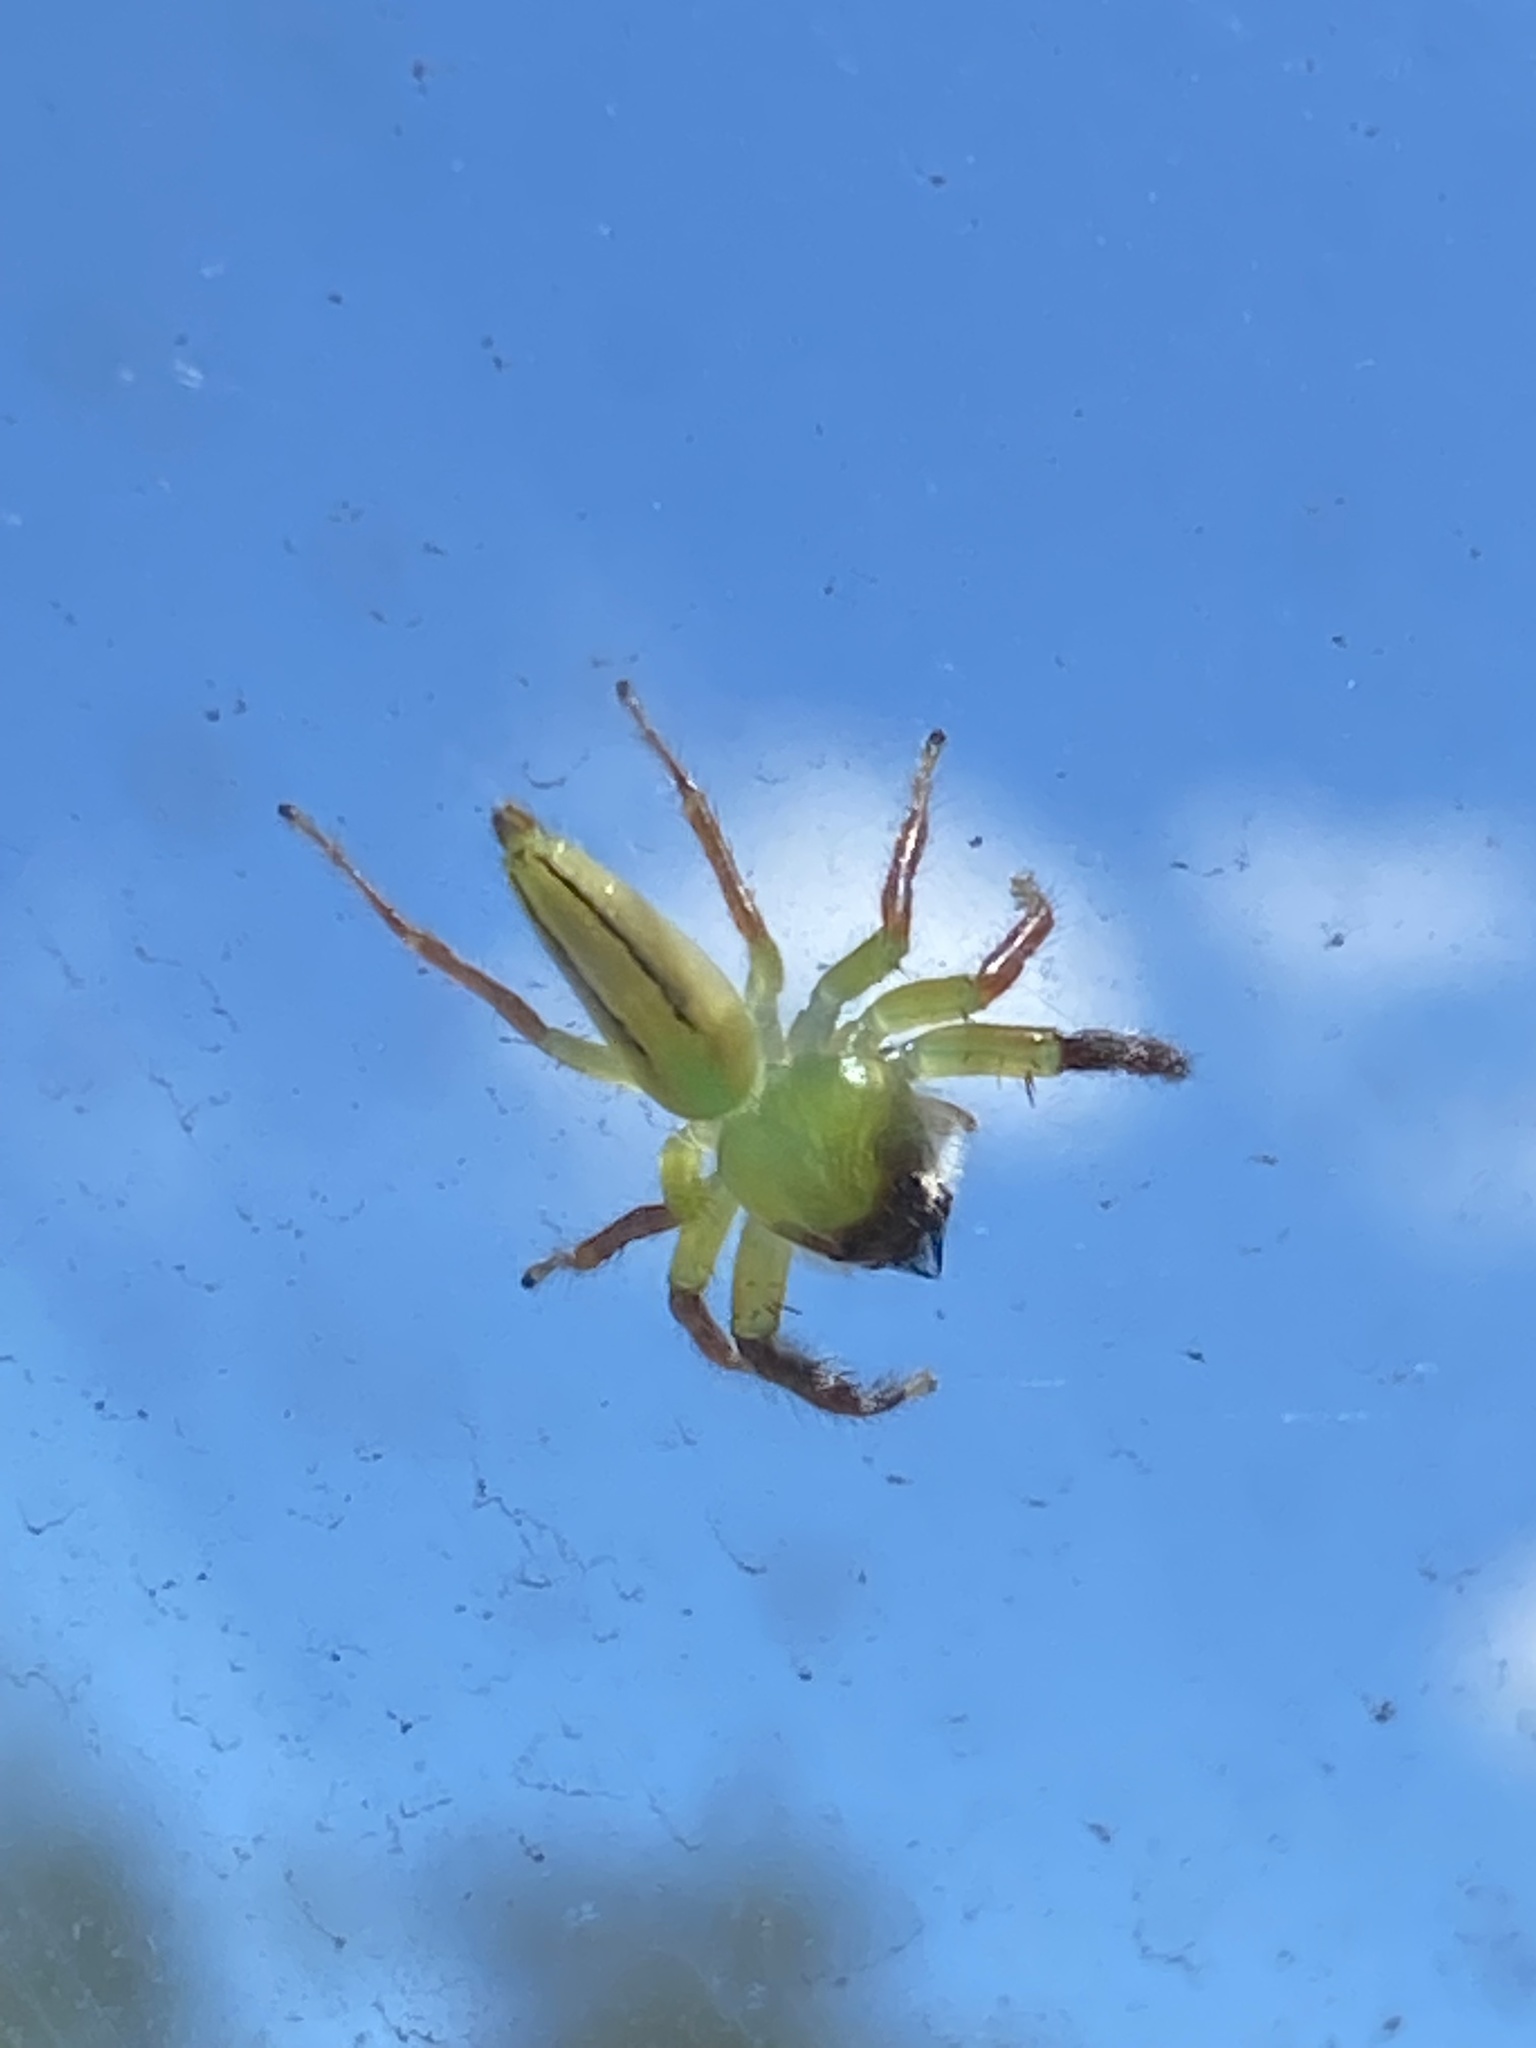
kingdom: Animalia
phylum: Arthropoda
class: Arachnida
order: Araneae
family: Salticidae
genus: Mopsus
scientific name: Mopsus mormon
